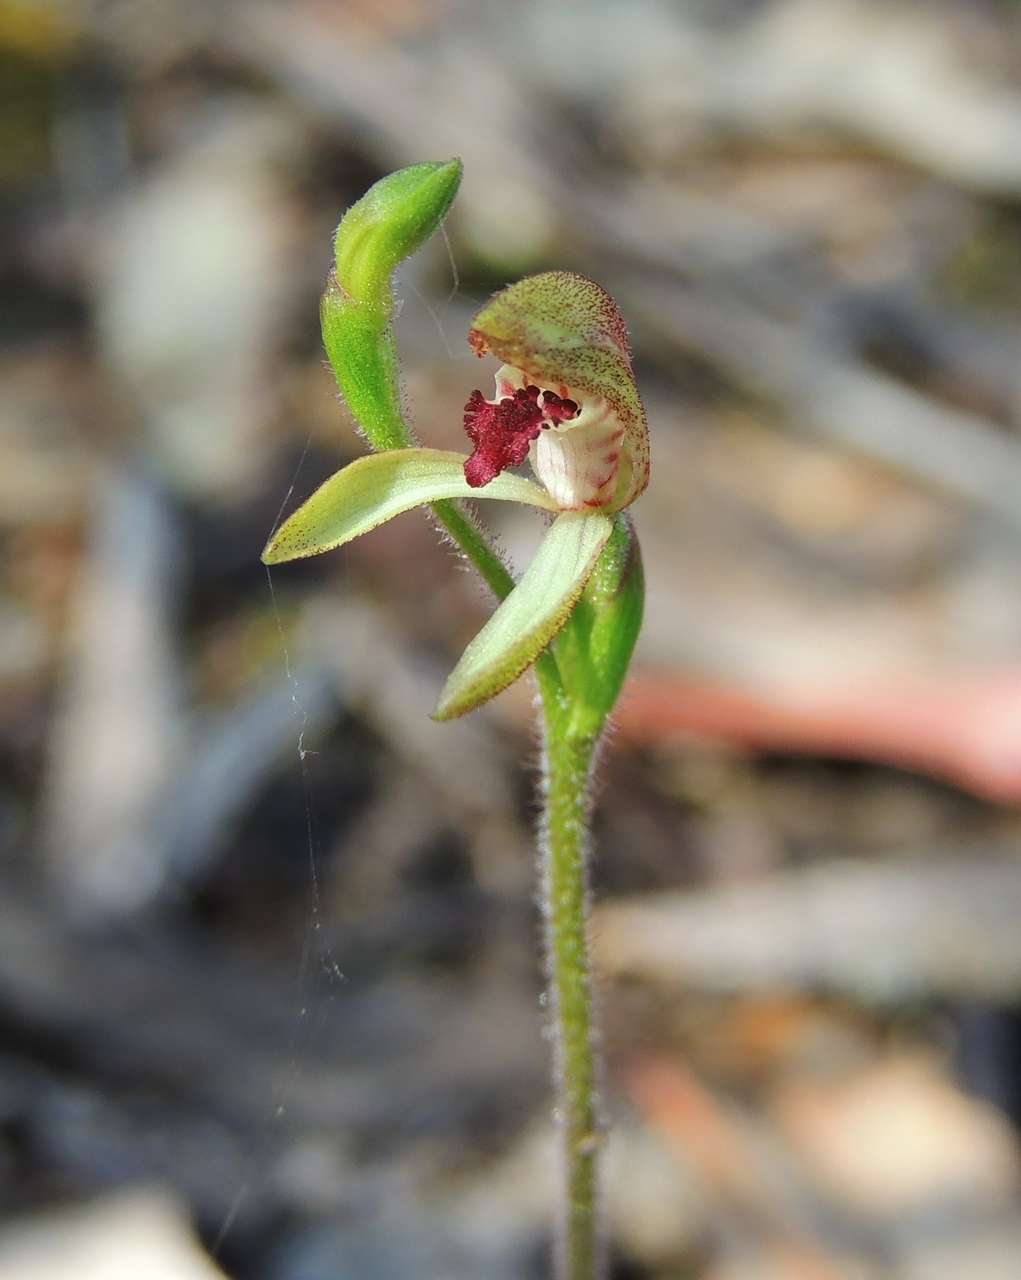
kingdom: Plantae
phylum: Tracheophyta
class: Liliopsida
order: Asparagales
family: Orchidaceae
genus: Caladenia
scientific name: Caladenia transitoria
